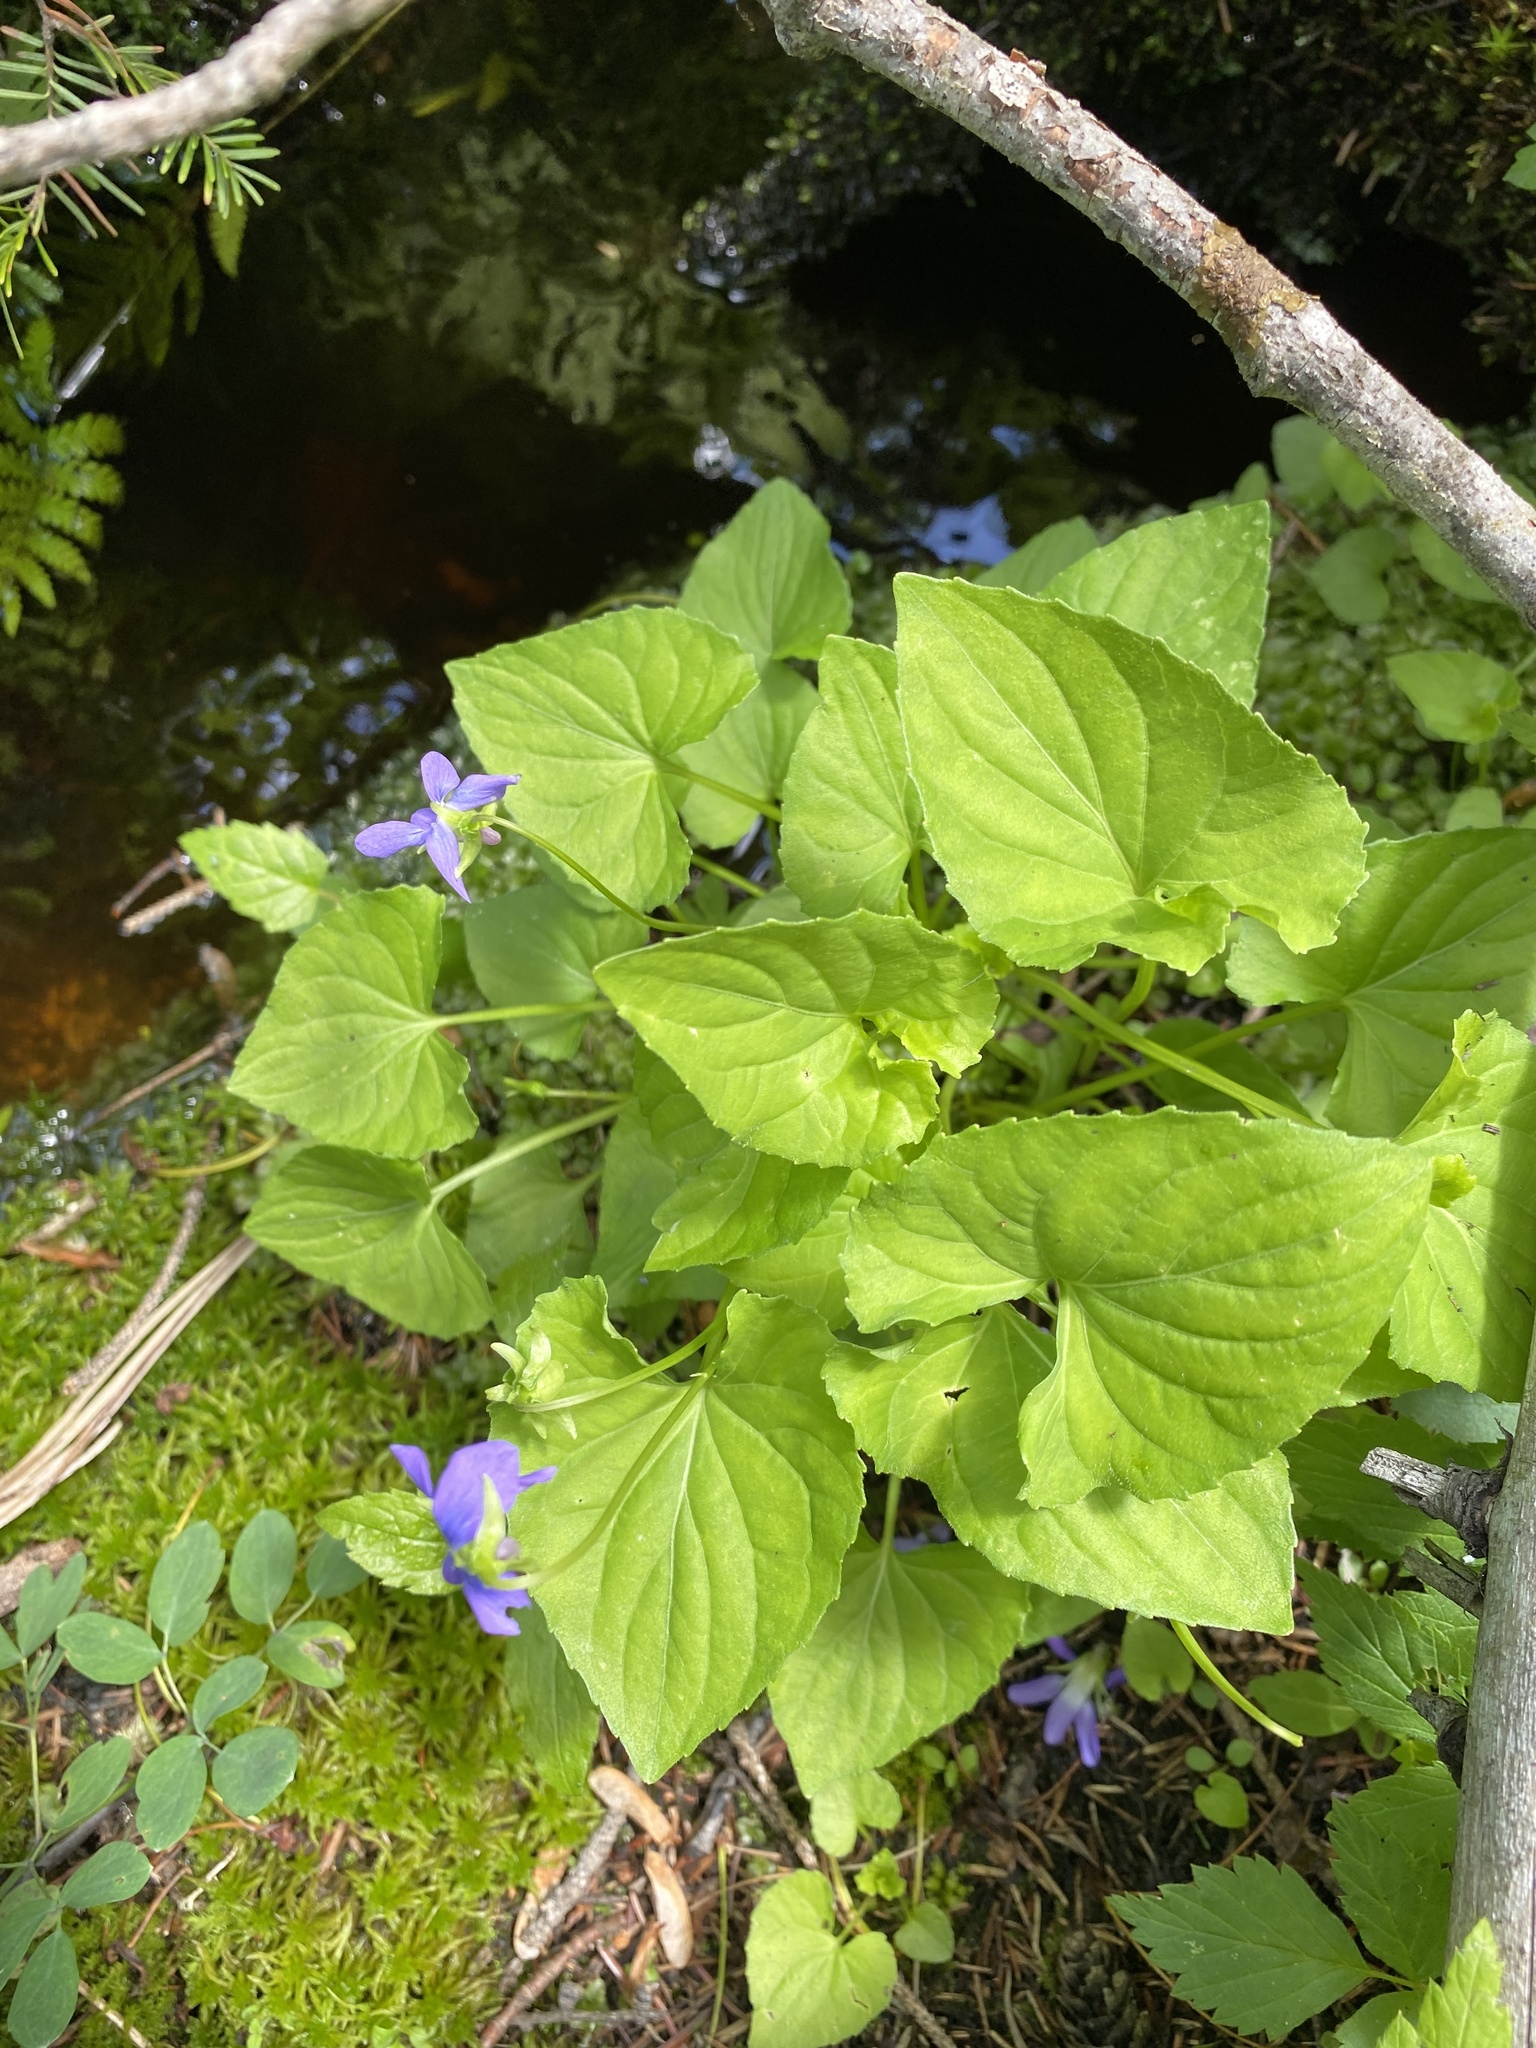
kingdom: Plantae
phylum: Tracheophyta
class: Magnoliopsida
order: Malpighiales
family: Violaceae
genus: Viola
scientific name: Viola cucullata
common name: Marsh blue violet
